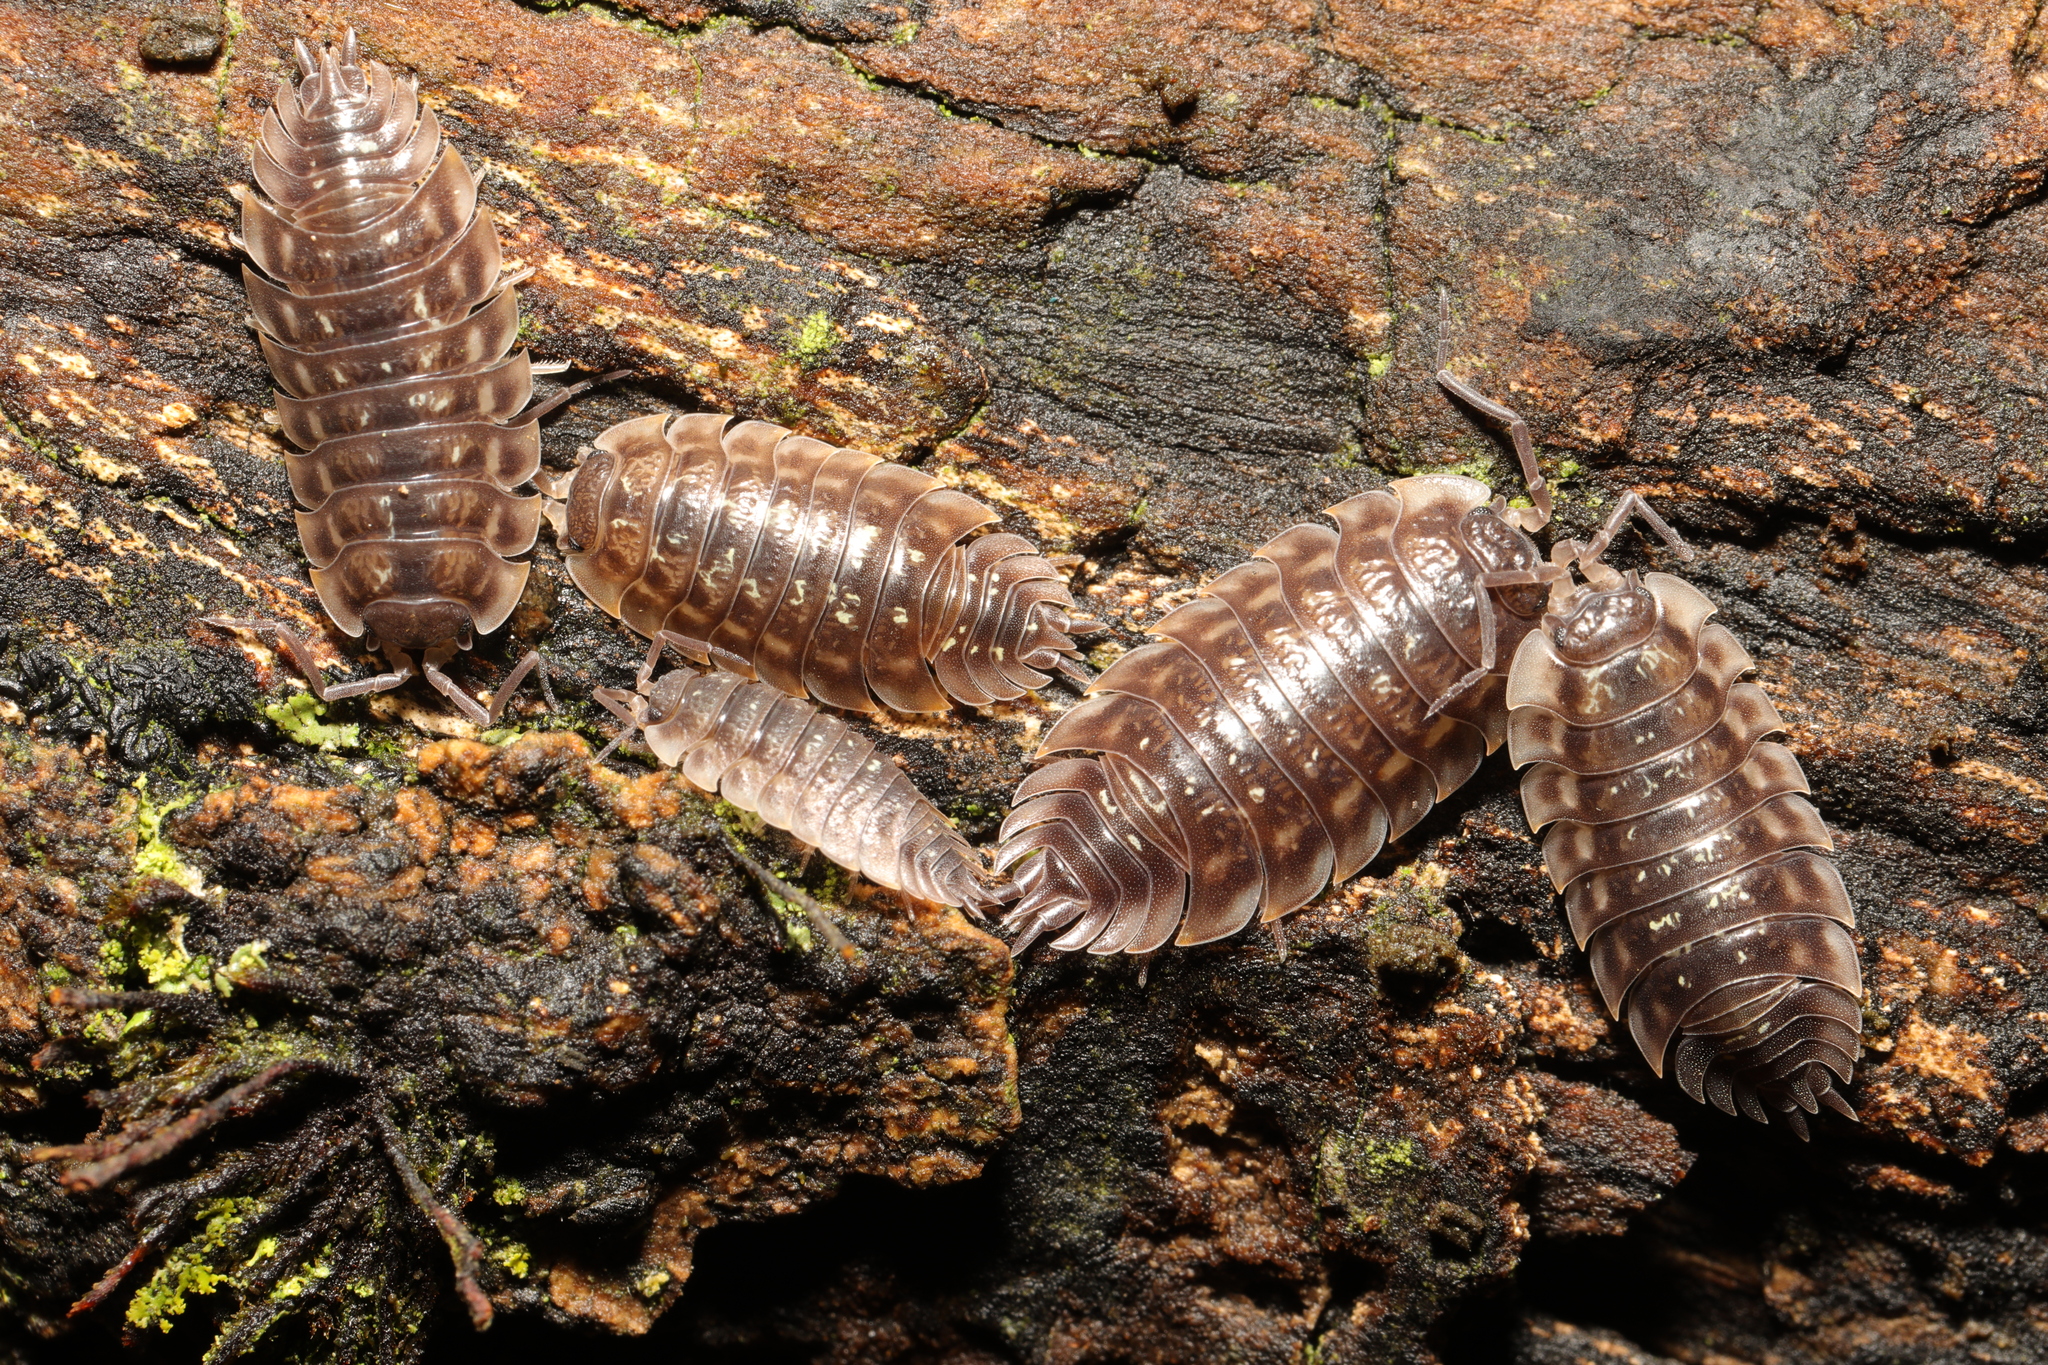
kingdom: Animalia
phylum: Arthropoda
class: Malacostraca
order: Isopoda
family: Oniscidae
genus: Oniscus
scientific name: Oniscus asellus
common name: Common shiny woodlouse
